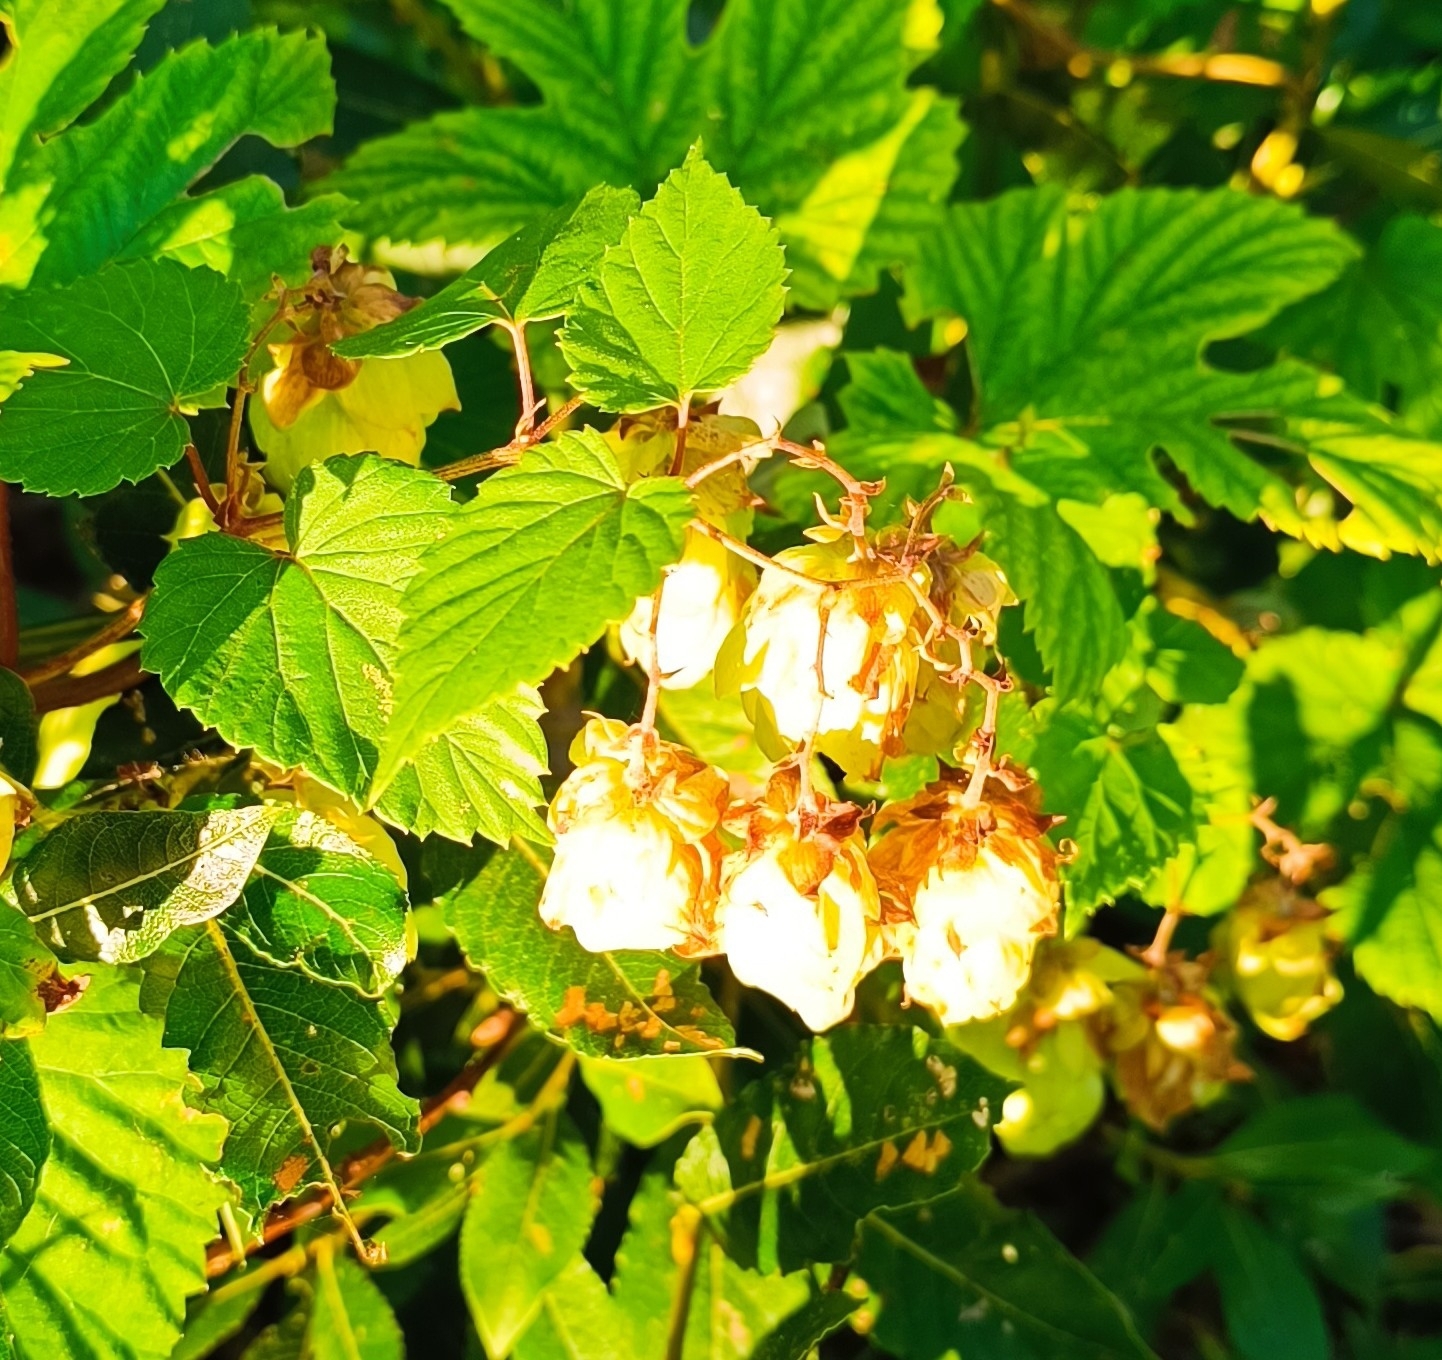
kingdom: Plantae
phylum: Tracheophyta
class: Magnoliopsida
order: Rosales
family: Cannabaceae
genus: Humulus
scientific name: Humulus lupulus
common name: Hop
